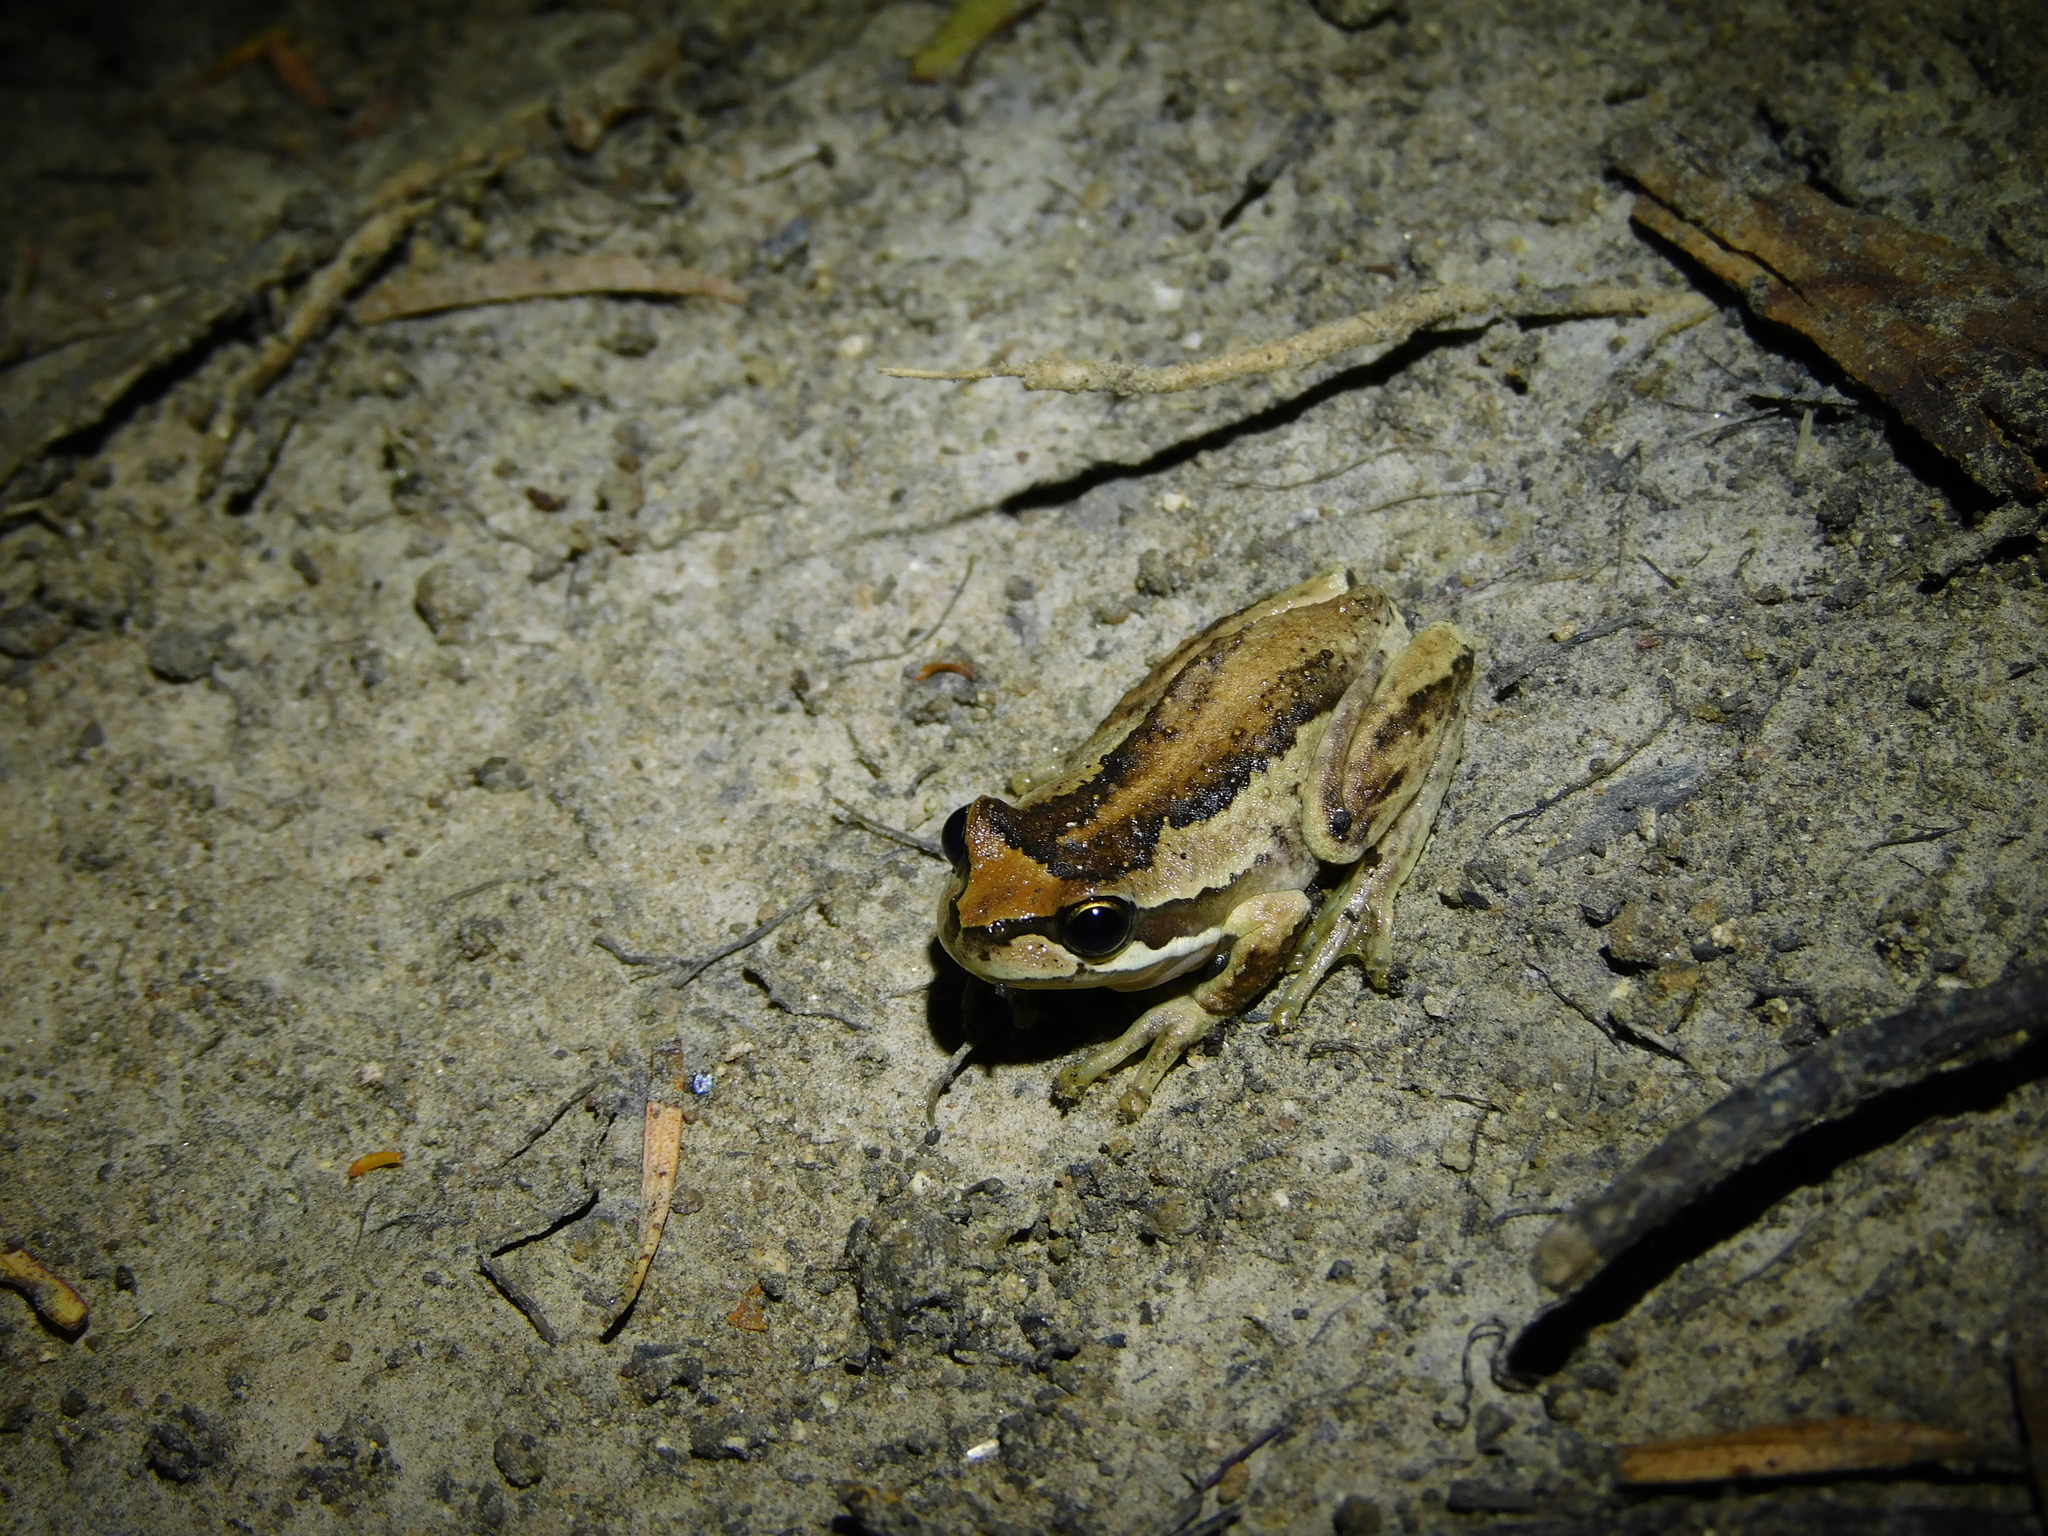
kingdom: Animalia
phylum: Chordata
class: Amphibia
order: Anura
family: Pelodryadidae
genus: Litoria
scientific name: Litoria ewingii
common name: Southern brown tree frog
